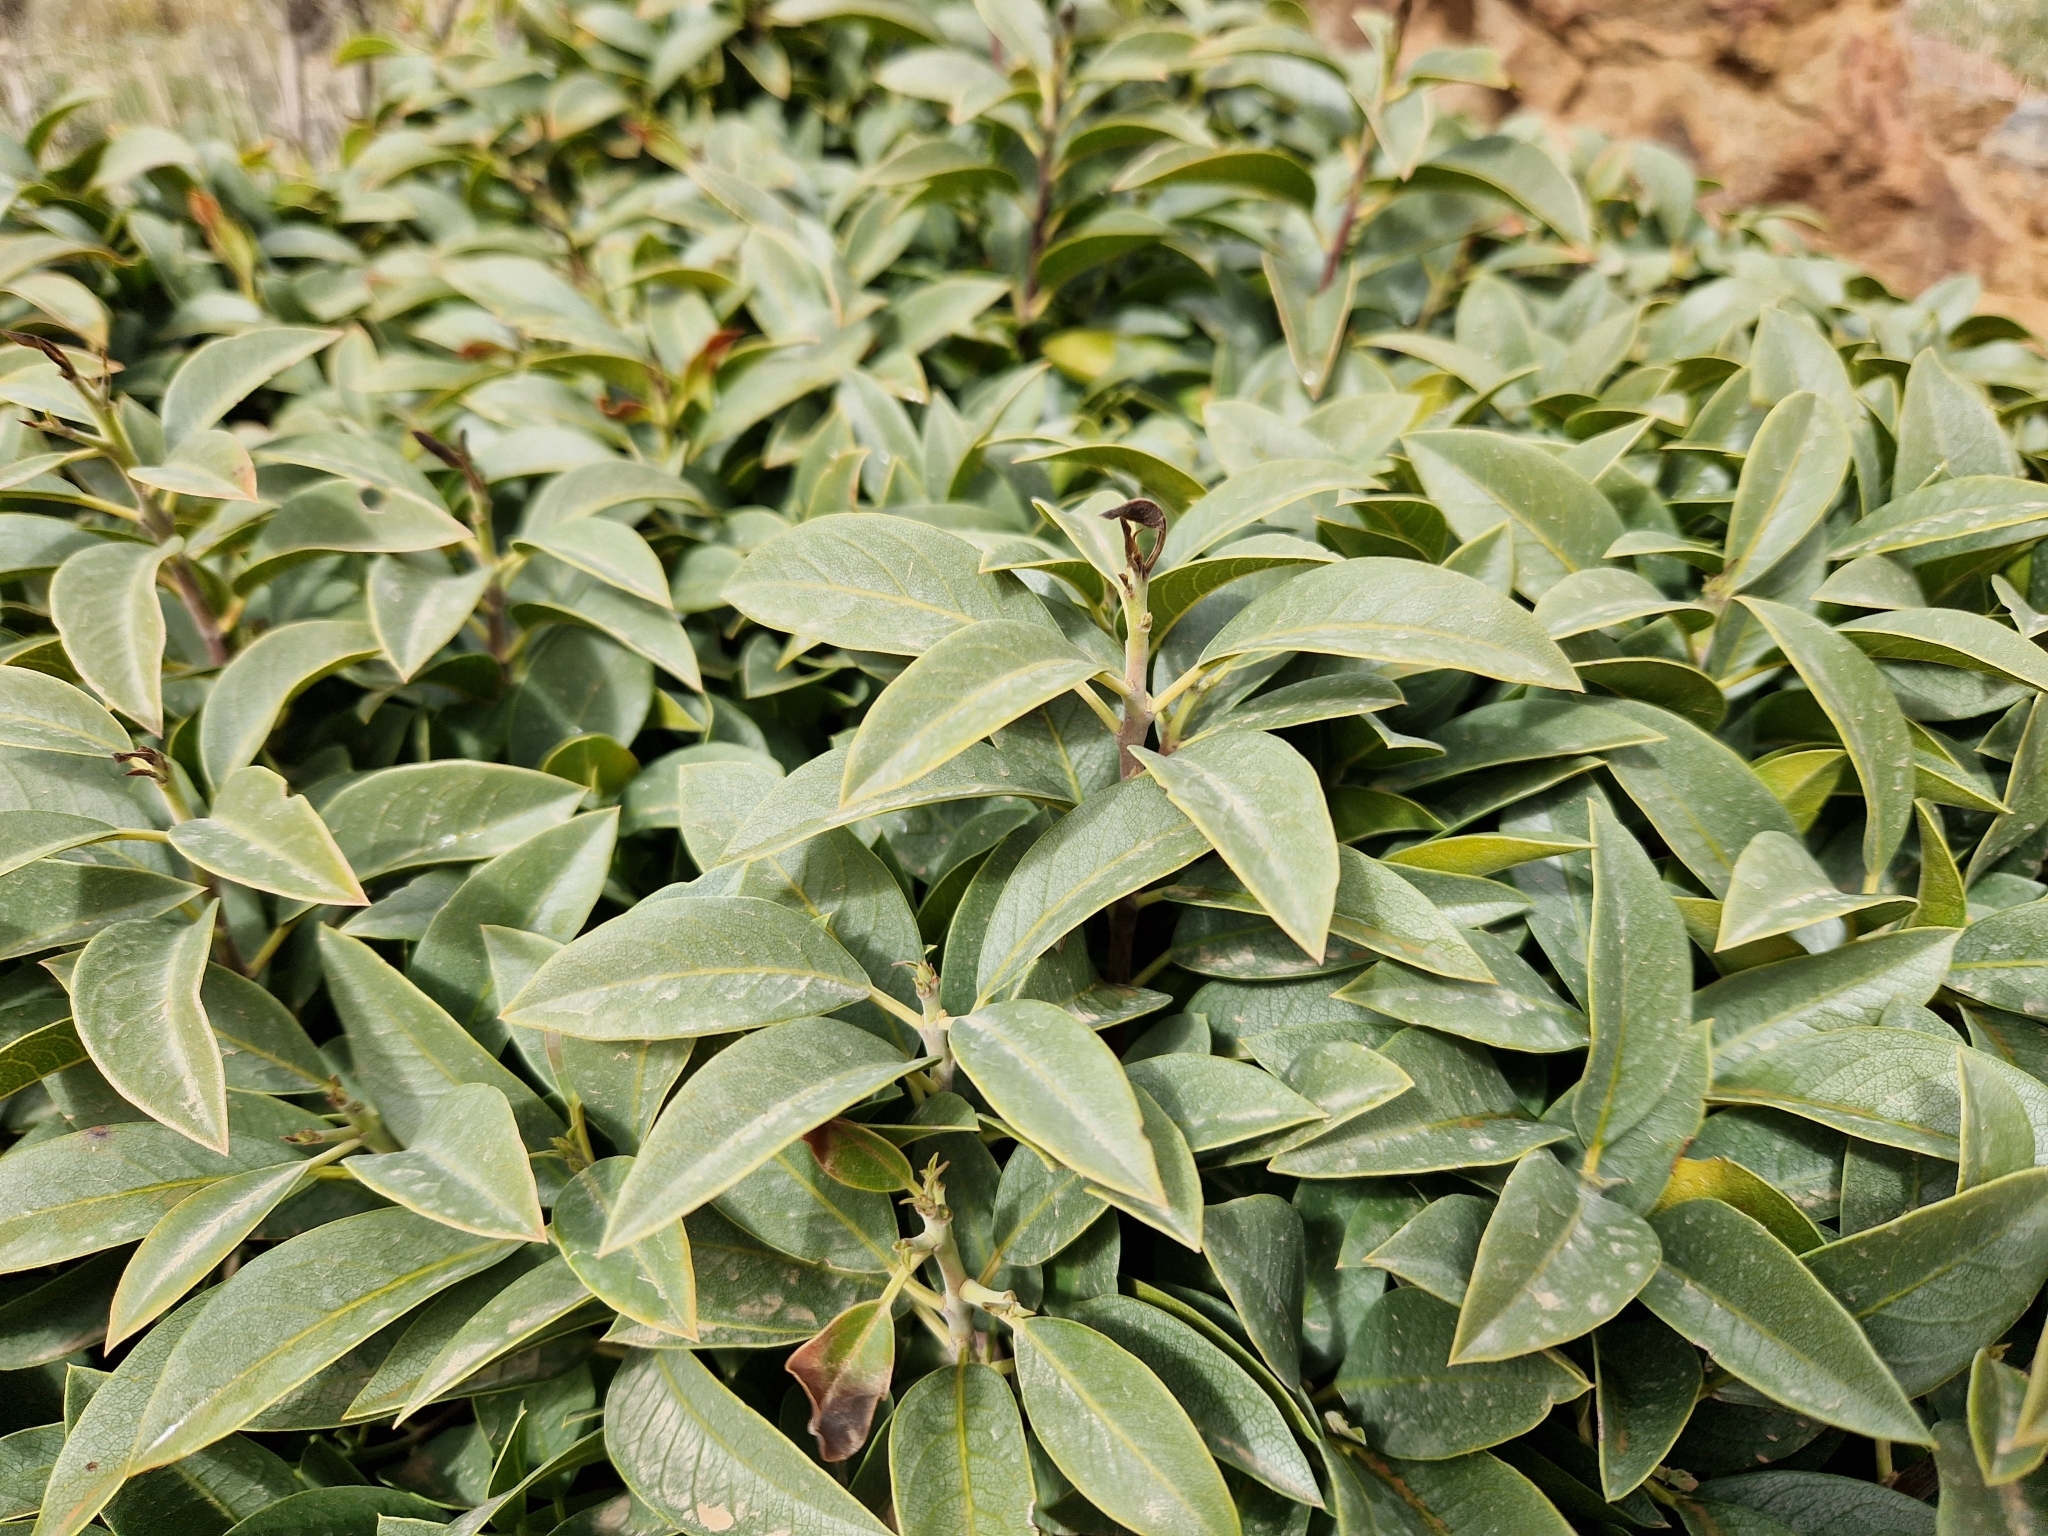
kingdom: Plantae
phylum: Tracheophyta
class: Magnoliopsida
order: Rosales
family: Rhamnaceae
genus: Rhamnus
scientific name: Rhamnus integrifolia
